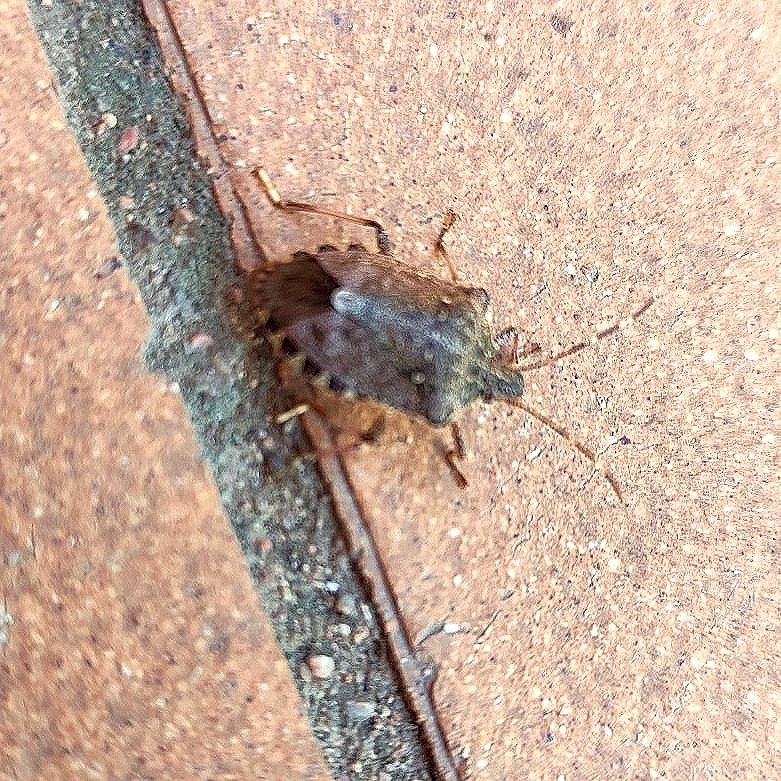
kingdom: Animalia
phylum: Arthropoda
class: Insecta
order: Hemiptera
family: Pentatomidae
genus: Halyomorpha
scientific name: Halyomorpha halys
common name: Brown marmorated stink bug
